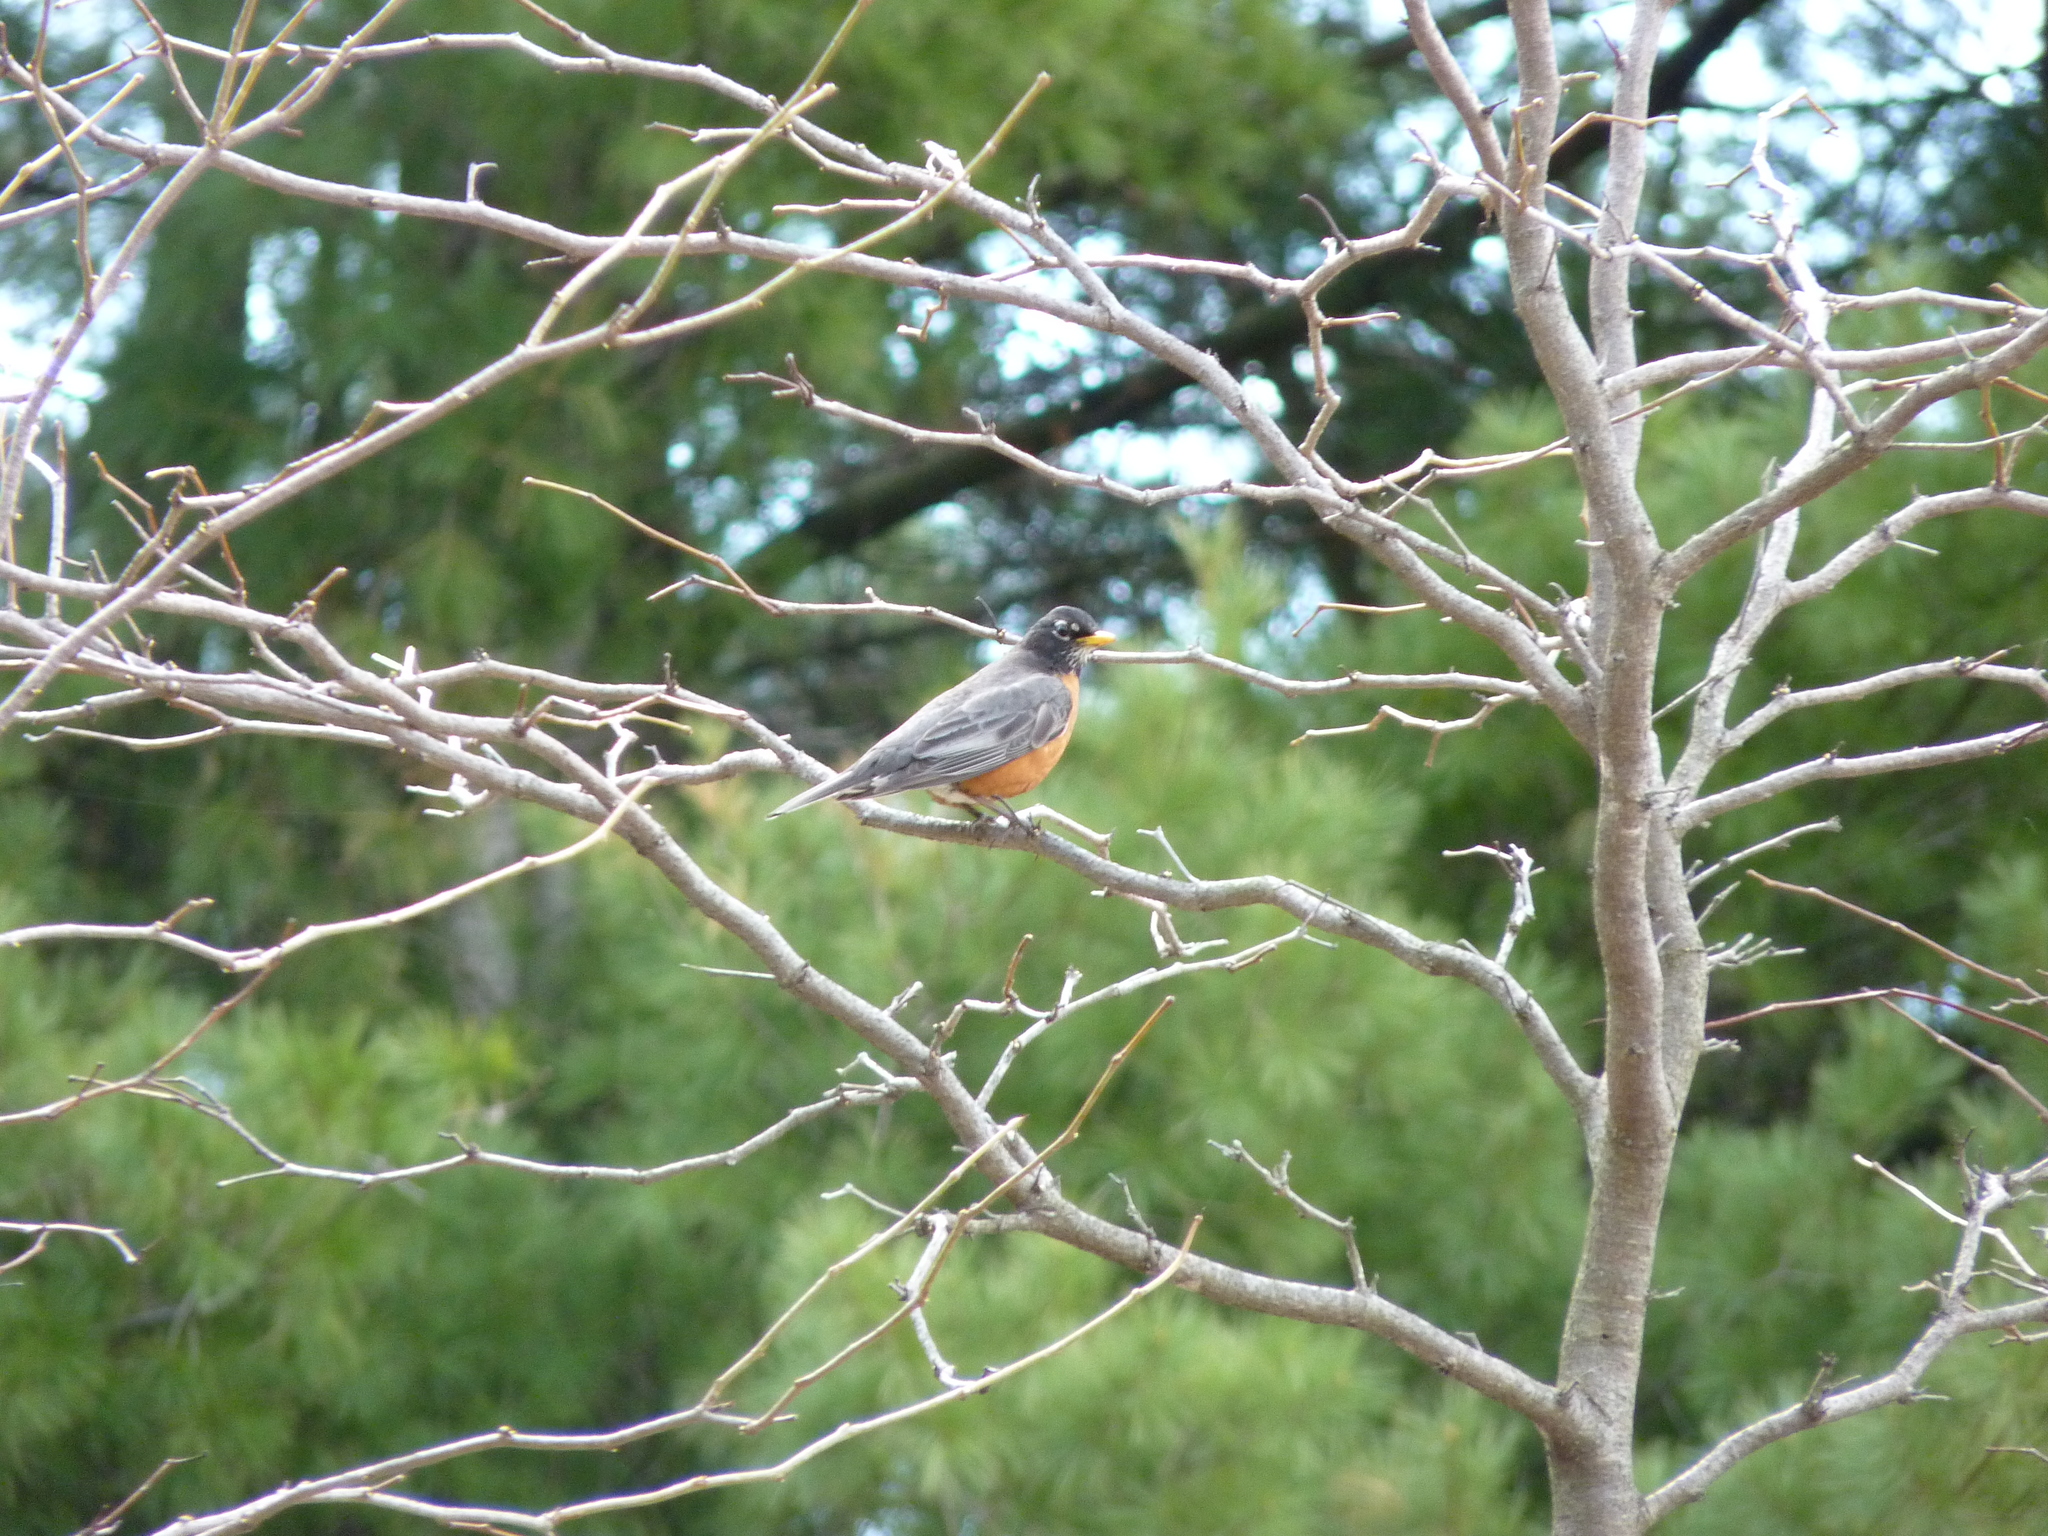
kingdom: Animalia
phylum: Chordata
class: Aves
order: Passeriformes
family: Turdidae
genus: Turdus
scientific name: Turdus migratorius
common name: American robin
